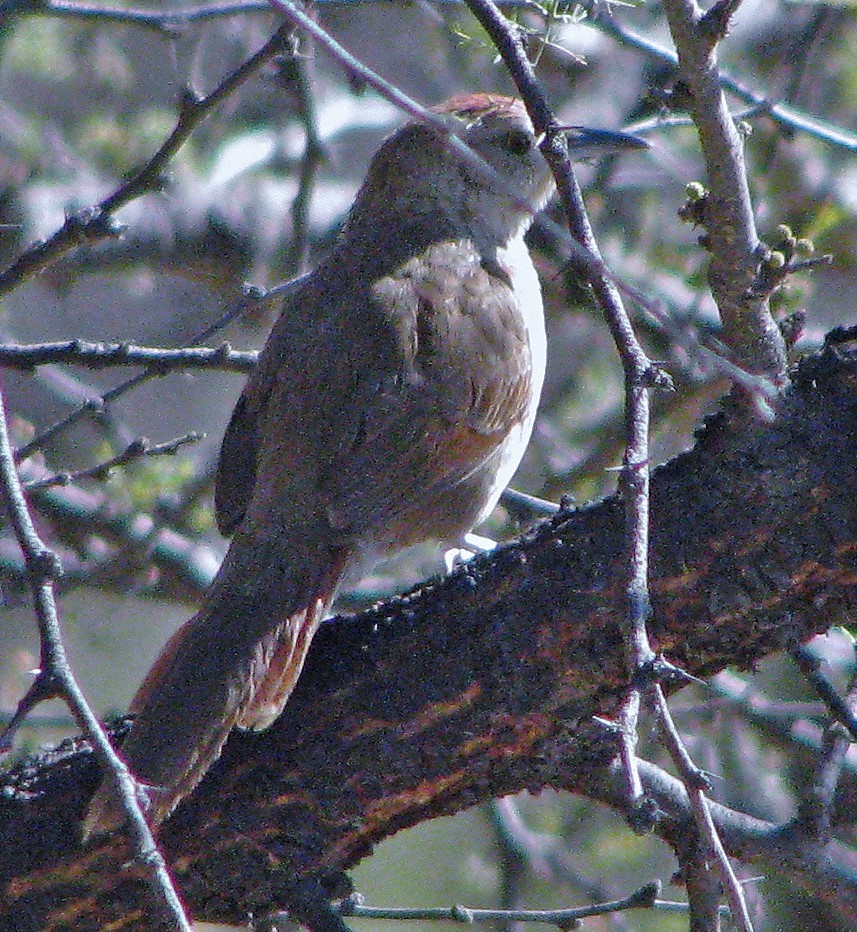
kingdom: Animalia
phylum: Chordata
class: Aves
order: Passeriformes
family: Furnariidae
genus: Phacellodomus
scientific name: Phacellodomus striaticollis
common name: Freckle-breasted thornbird
